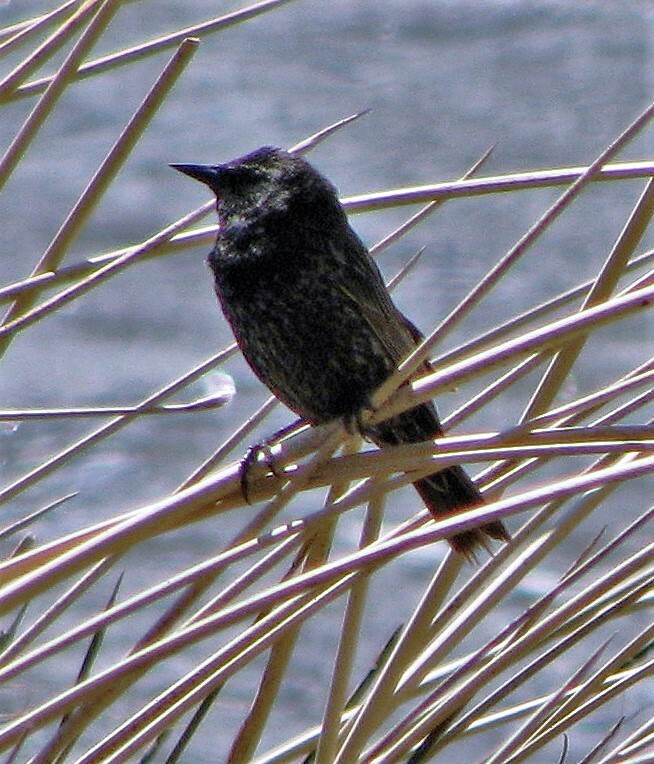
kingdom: Animalia
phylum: Chordata
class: Aves
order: Passeriformes
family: Icteridae
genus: Agelasticus
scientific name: Agelasticus thilius
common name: Yellow-winged blackbird
